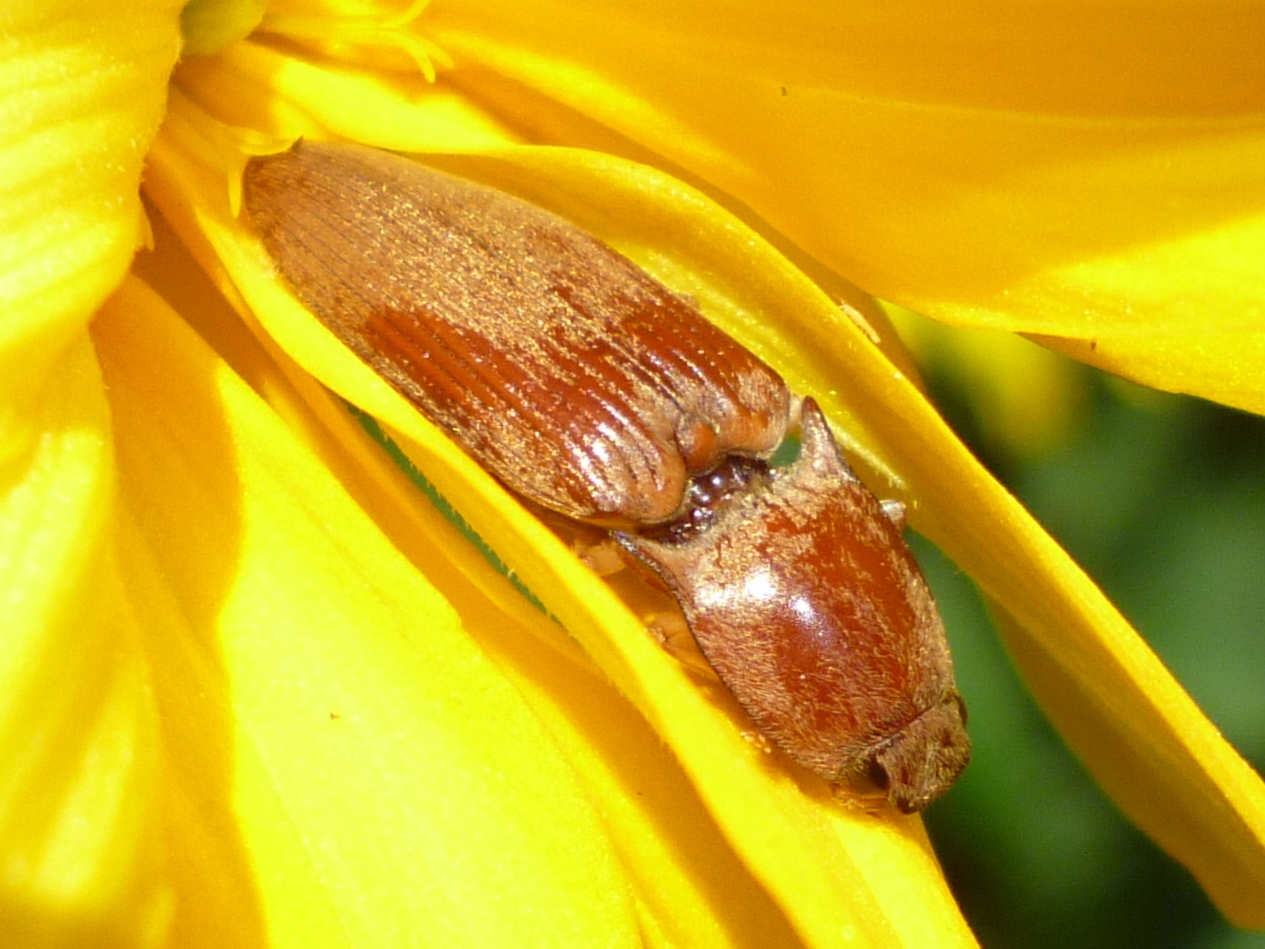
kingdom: Animalia
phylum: Arthropoda
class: Insecta
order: Coleoptera
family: Elateridae
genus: Monocrepidius
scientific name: Monocrepidius lividus
